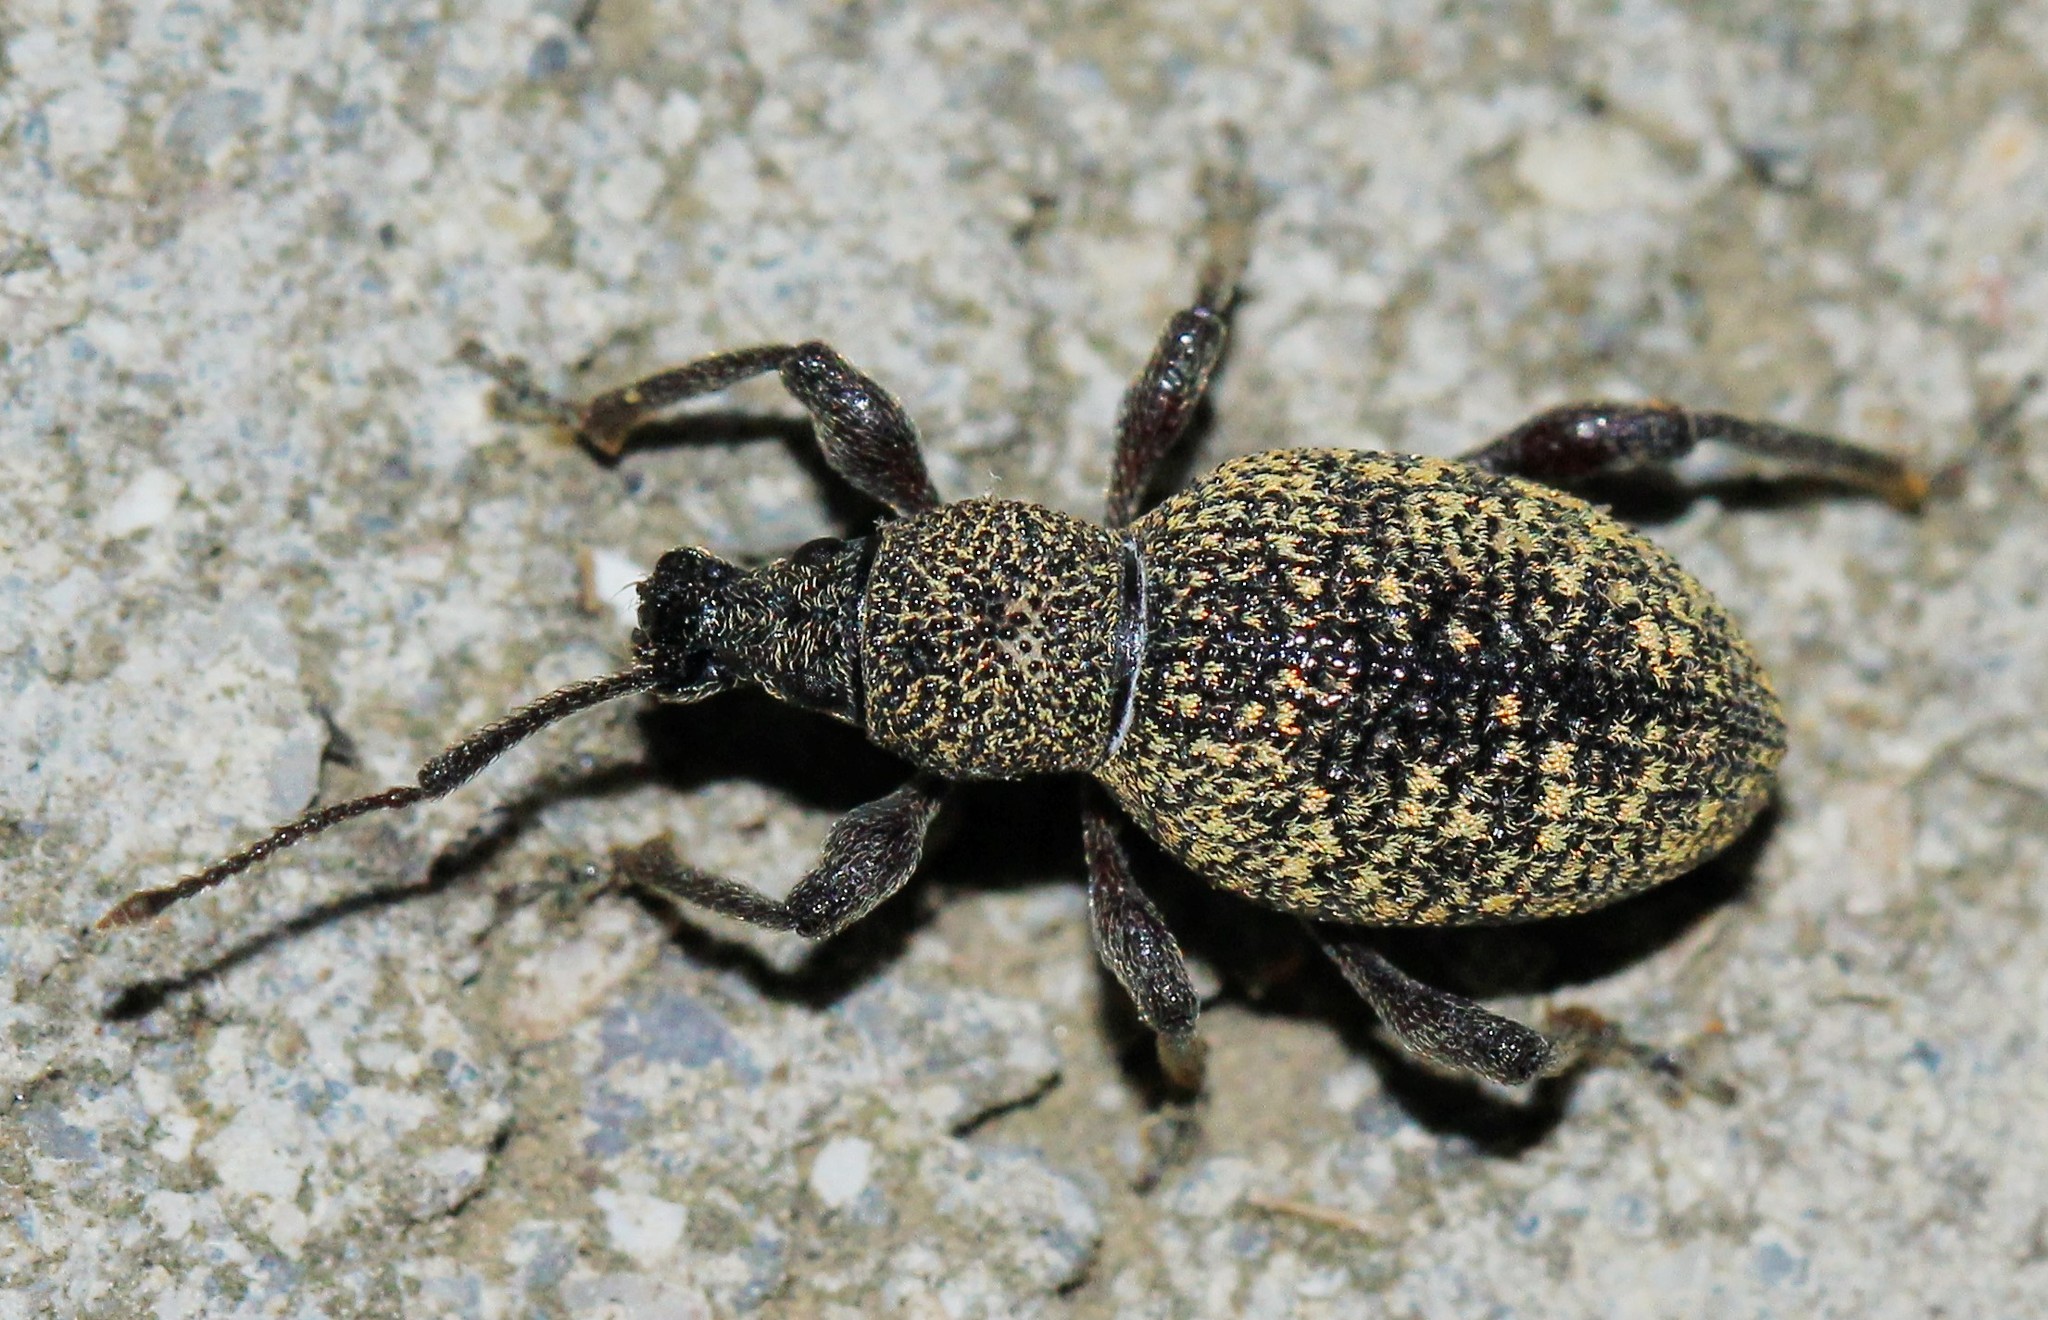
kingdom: Animalia
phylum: Arthropoda
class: Insecta
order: Coleoptera
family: Curculionidae
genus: Otiorhynchus
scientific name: Otiorhynchus turca
